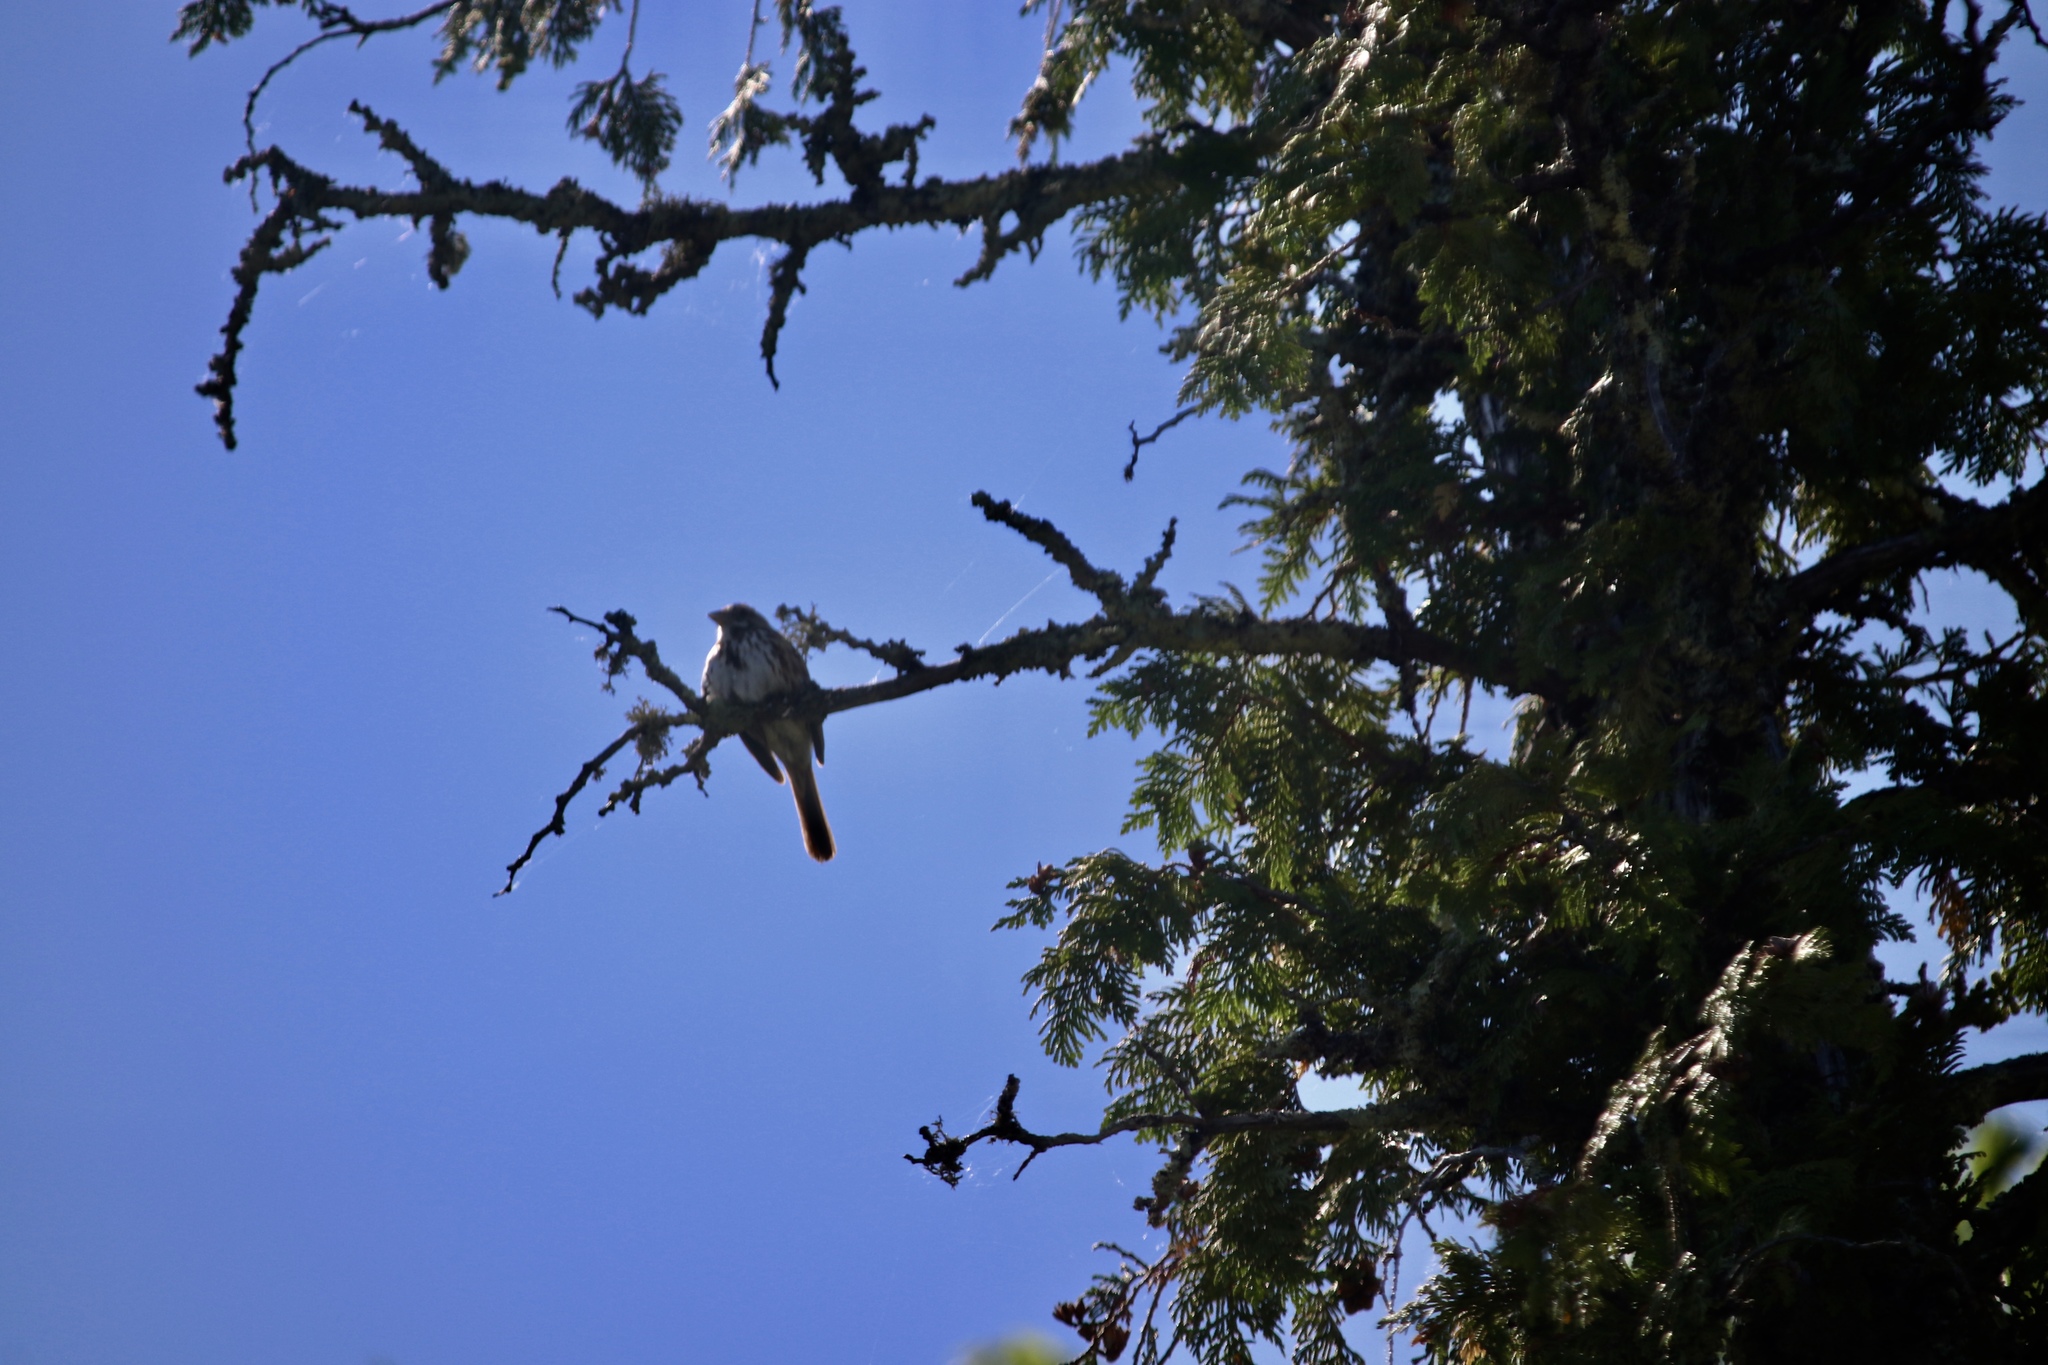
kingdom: Animalia
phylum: Chordata
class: Aves
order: Passeriformes
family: Passerellidae
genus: Melospiza
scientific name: Melospiza melodia
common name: Song sparrow
